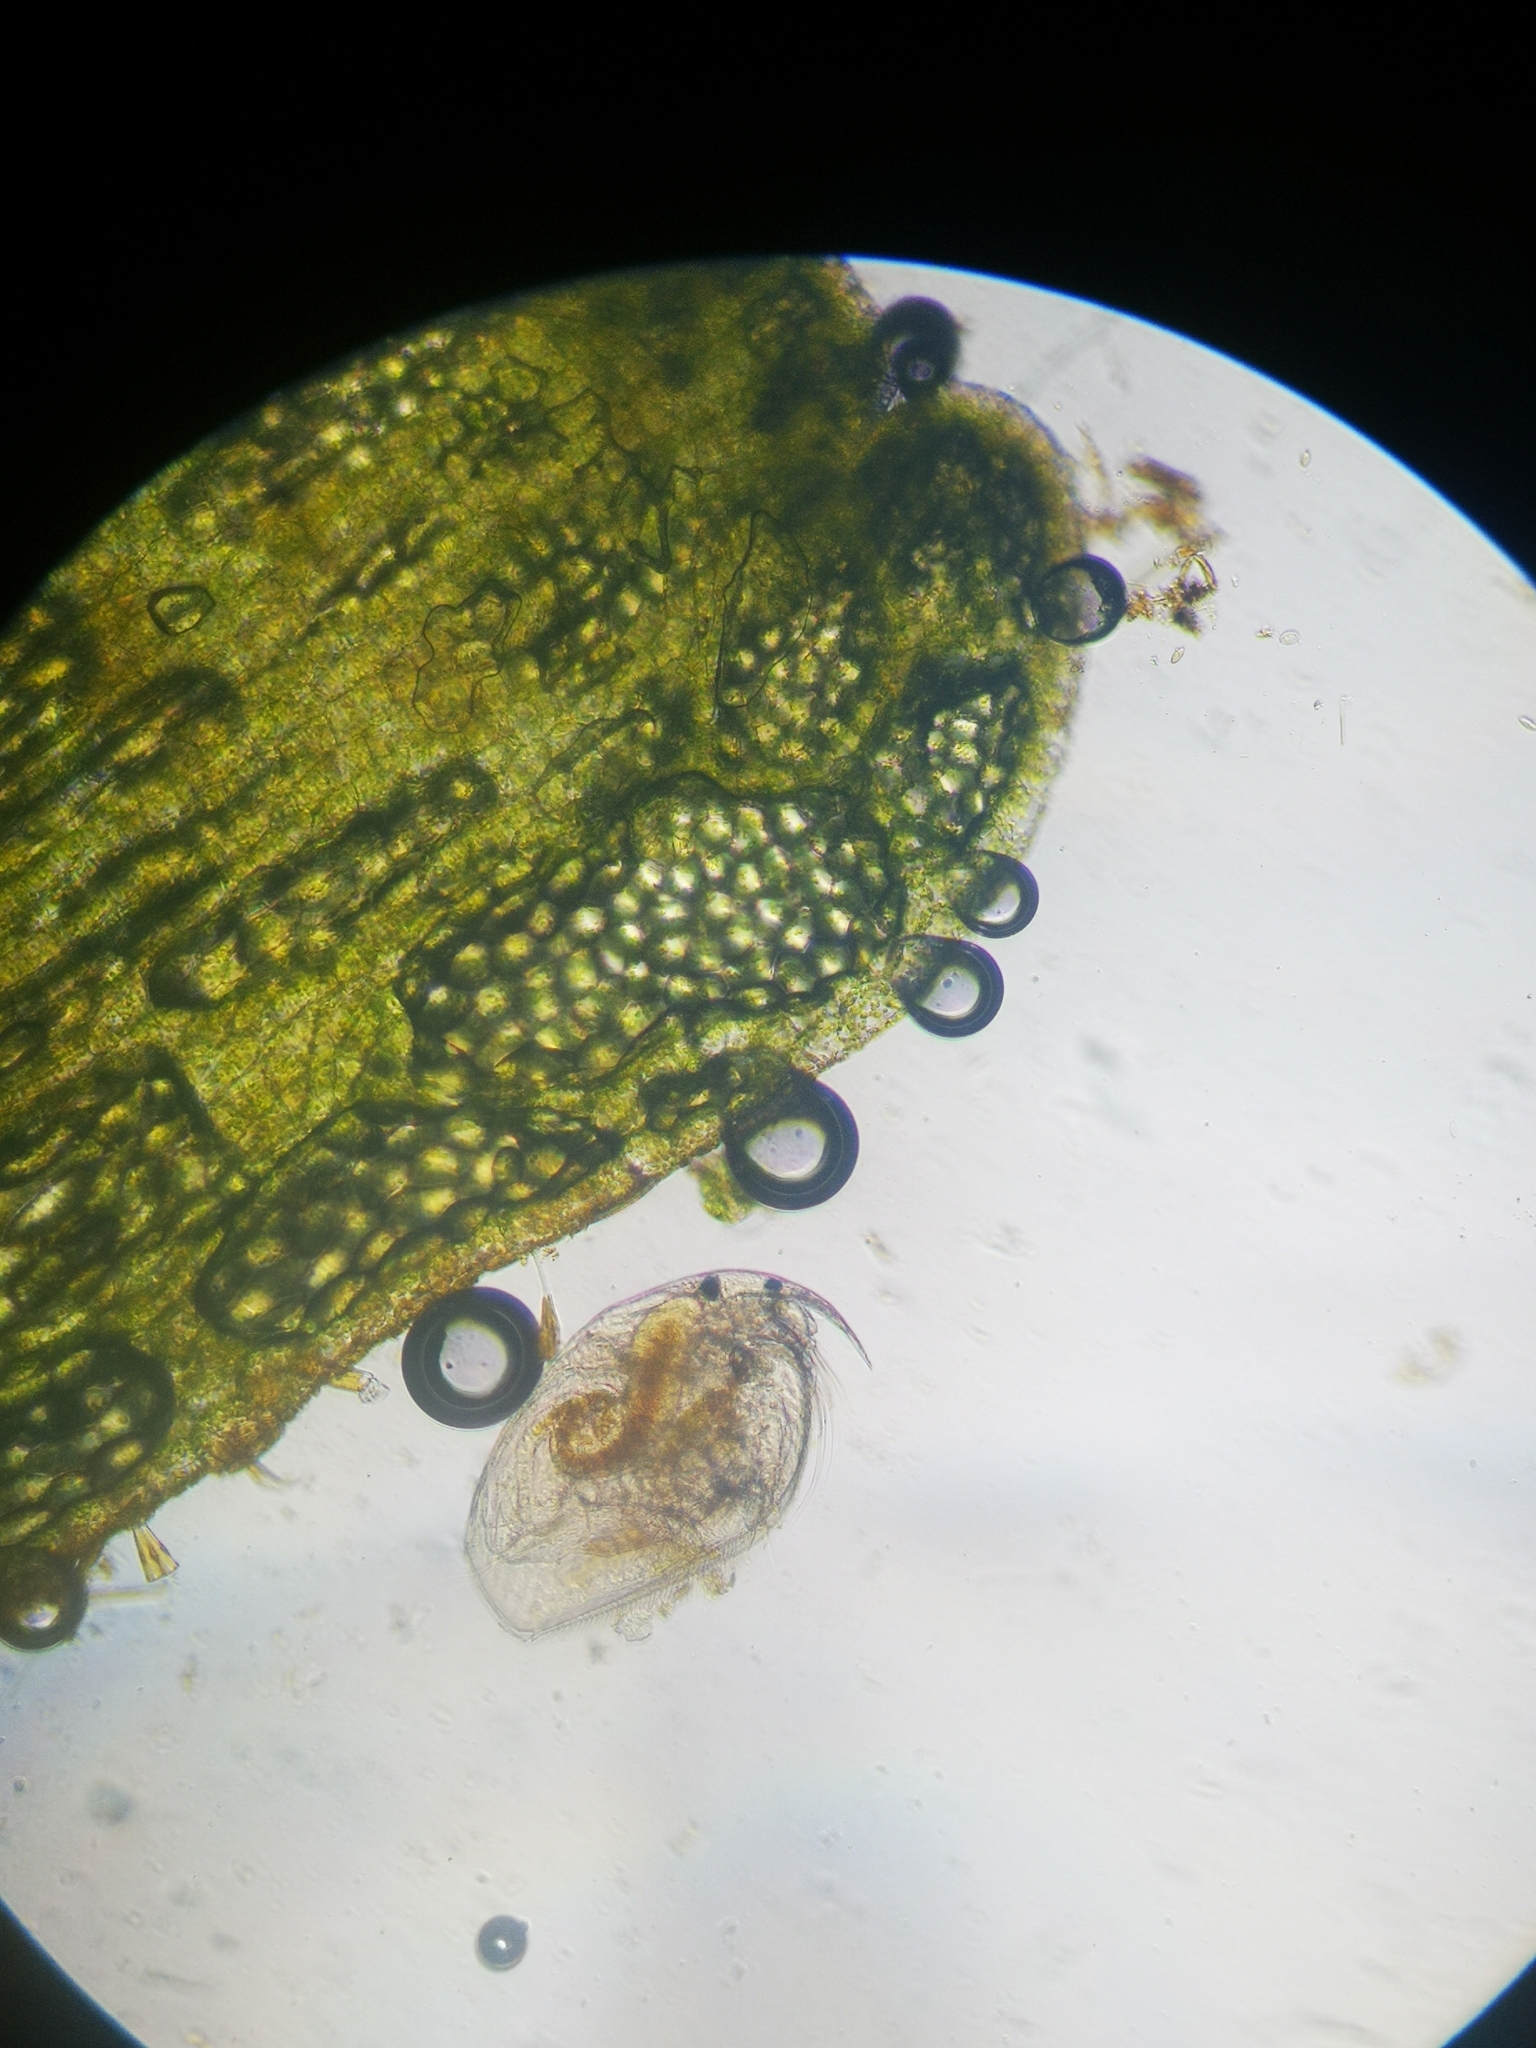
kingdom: Animalia
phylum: Arthropoda
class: Branchiopoda
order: Diplostraca
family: Chydoridae
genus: Picripleuroxus
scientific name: Picripleuroxus denticulatus
